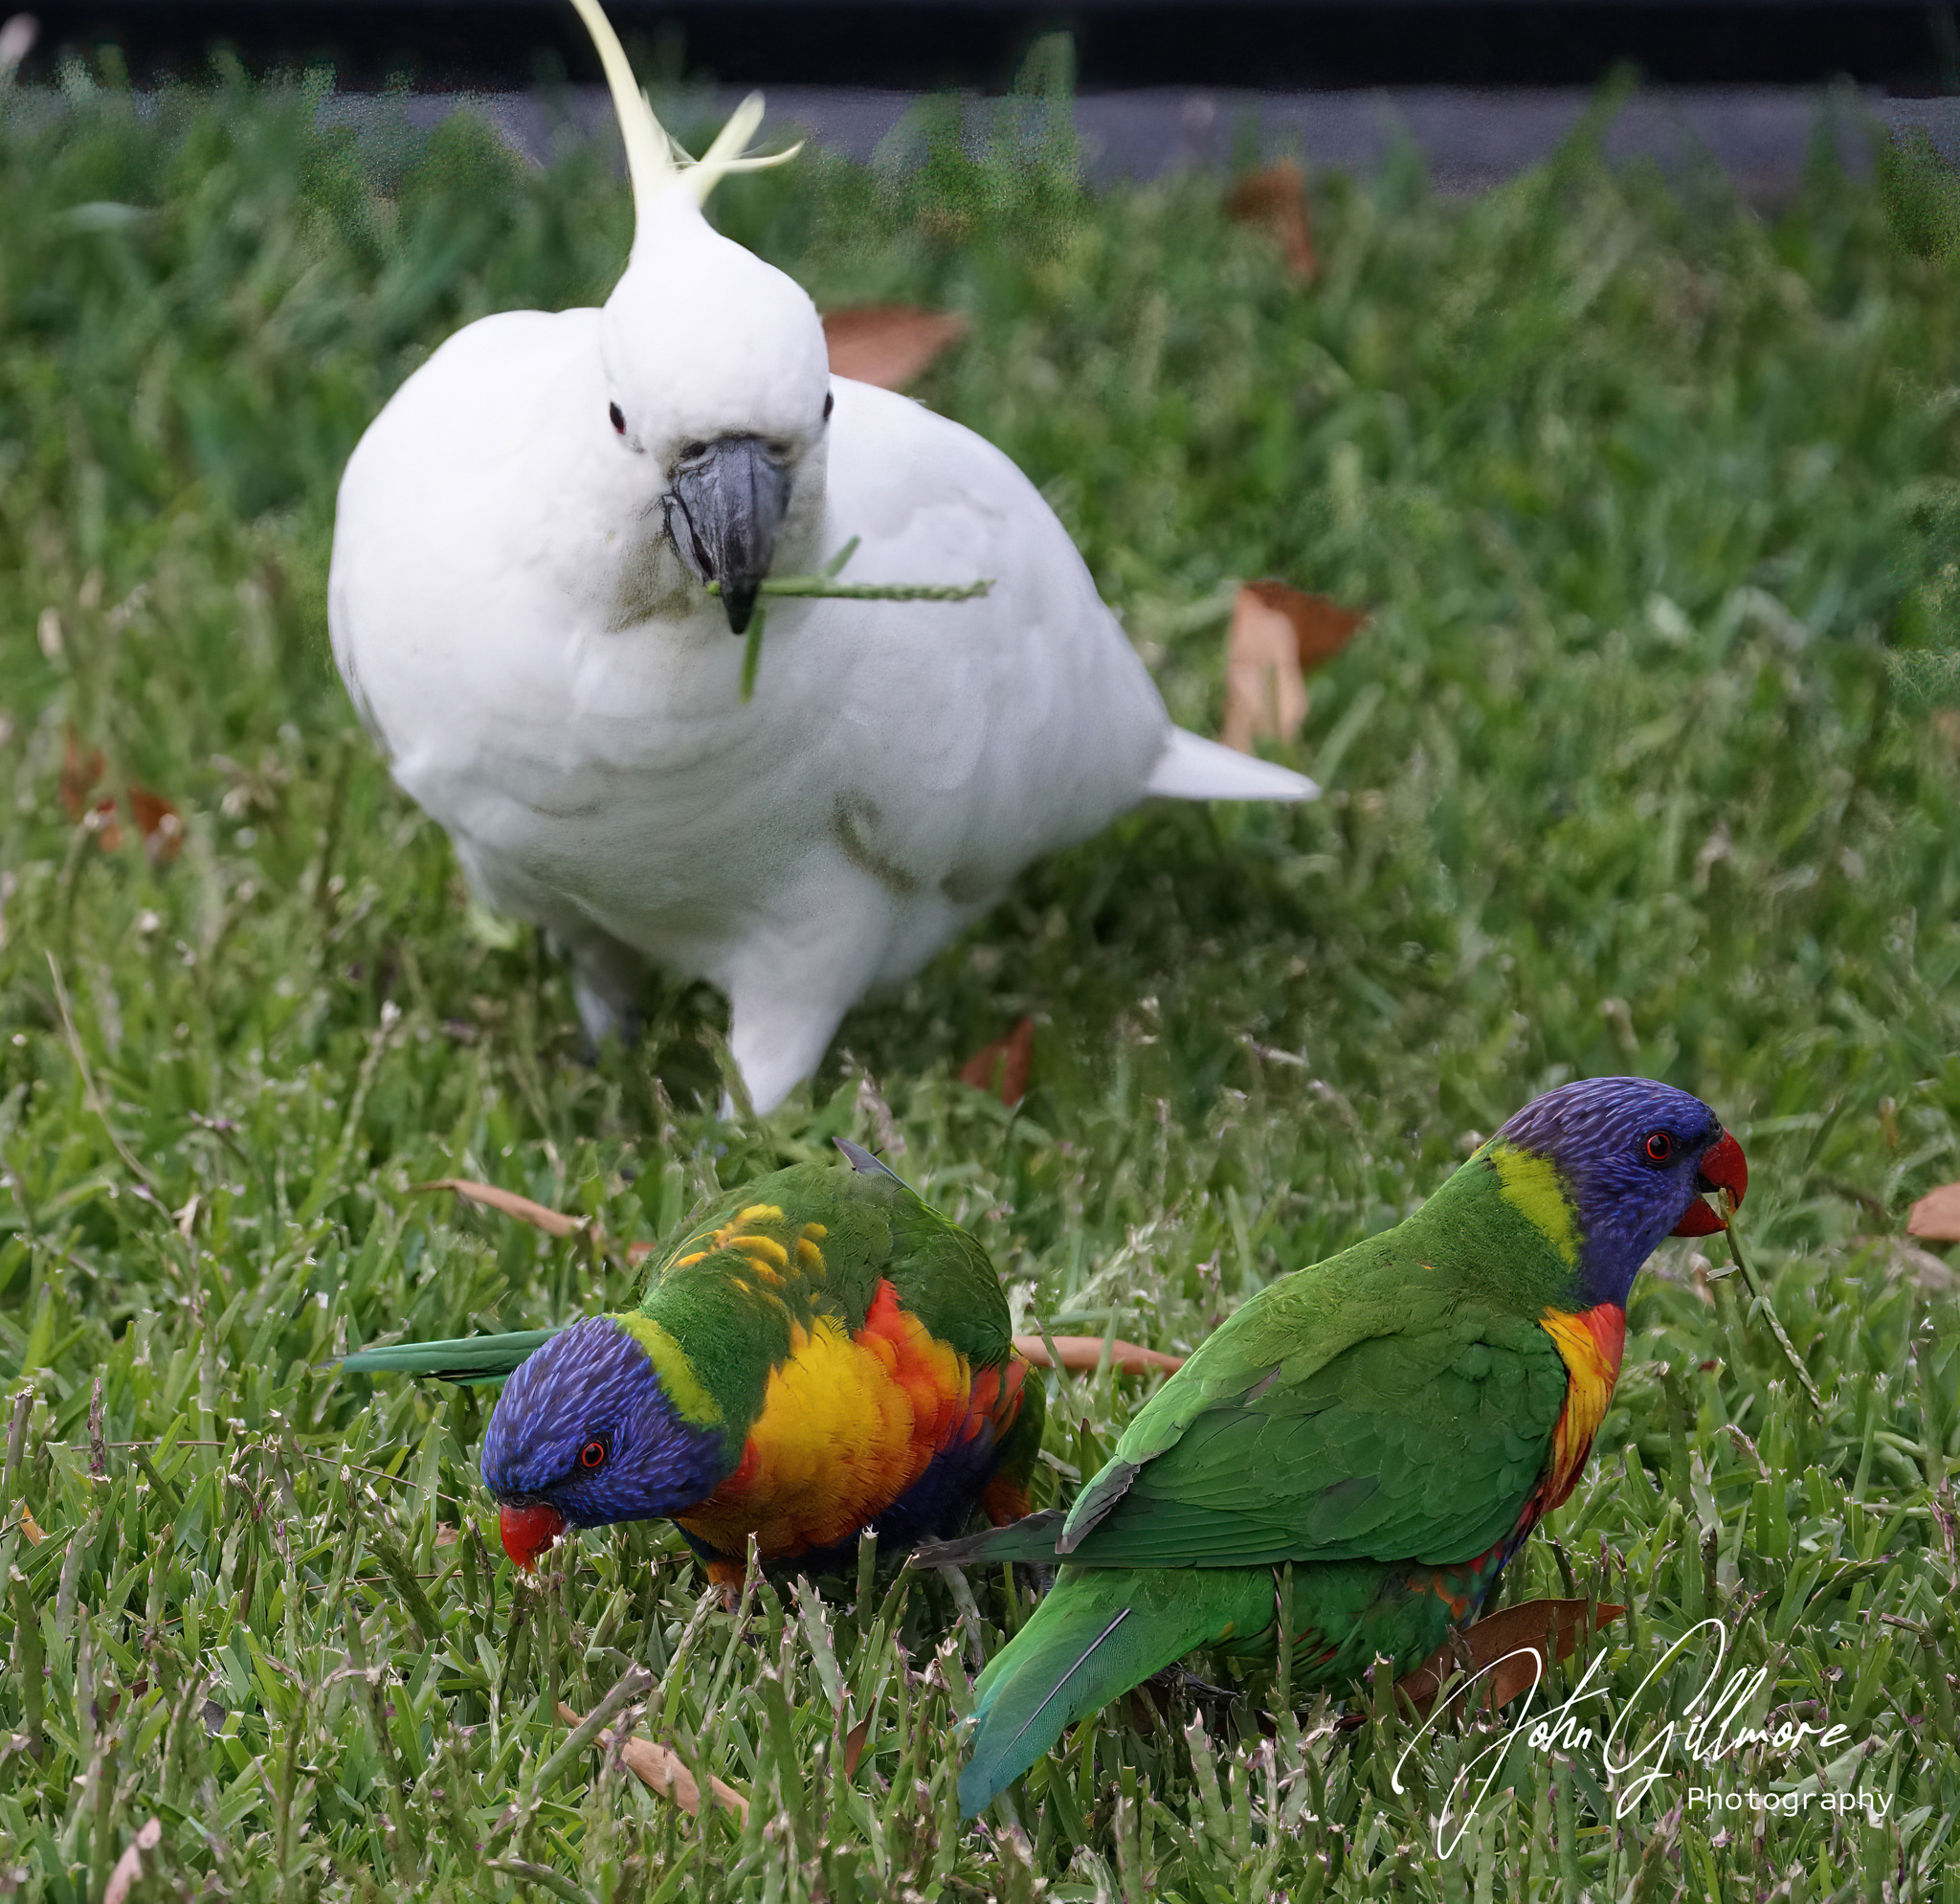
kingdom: Animalia
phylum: Chordata
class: Aves
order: Psittaciformes
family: Psittacidae
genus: Trichoglossus
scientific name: Trichoglossus haematodus
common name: Coconut lorikeet
